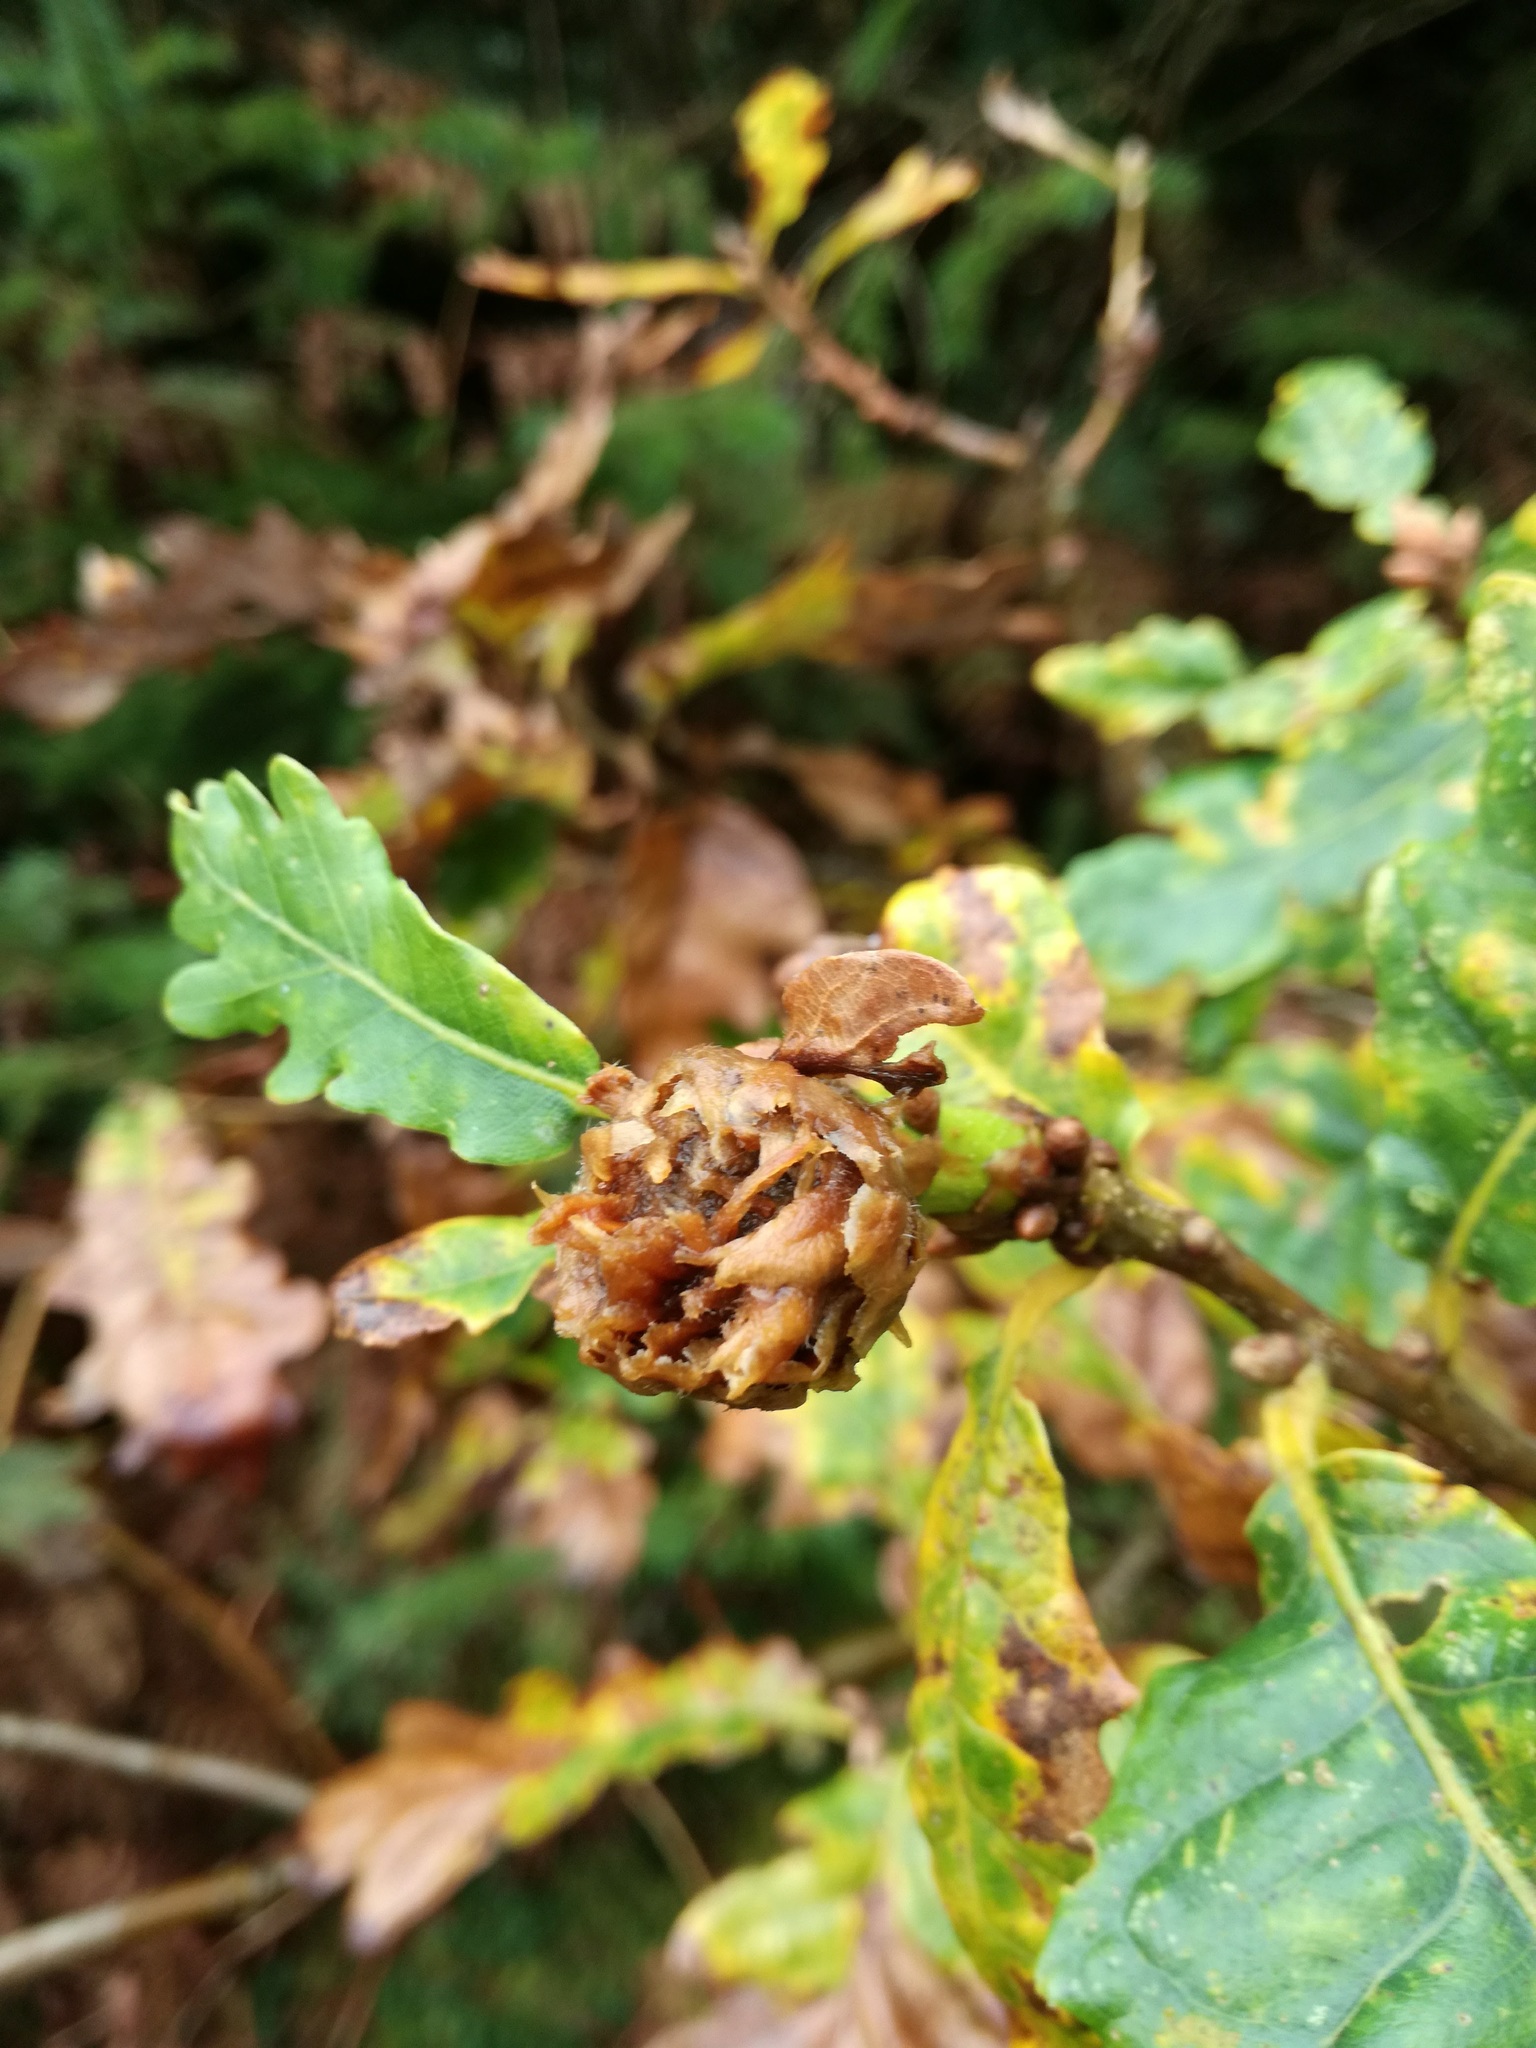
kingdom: Animalia
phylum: Arthropoda
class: Insecta
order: Hymenoptera
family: Cynipidae
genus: Andricus
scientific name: Andricus foecundatrix
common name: Artichoke gall
